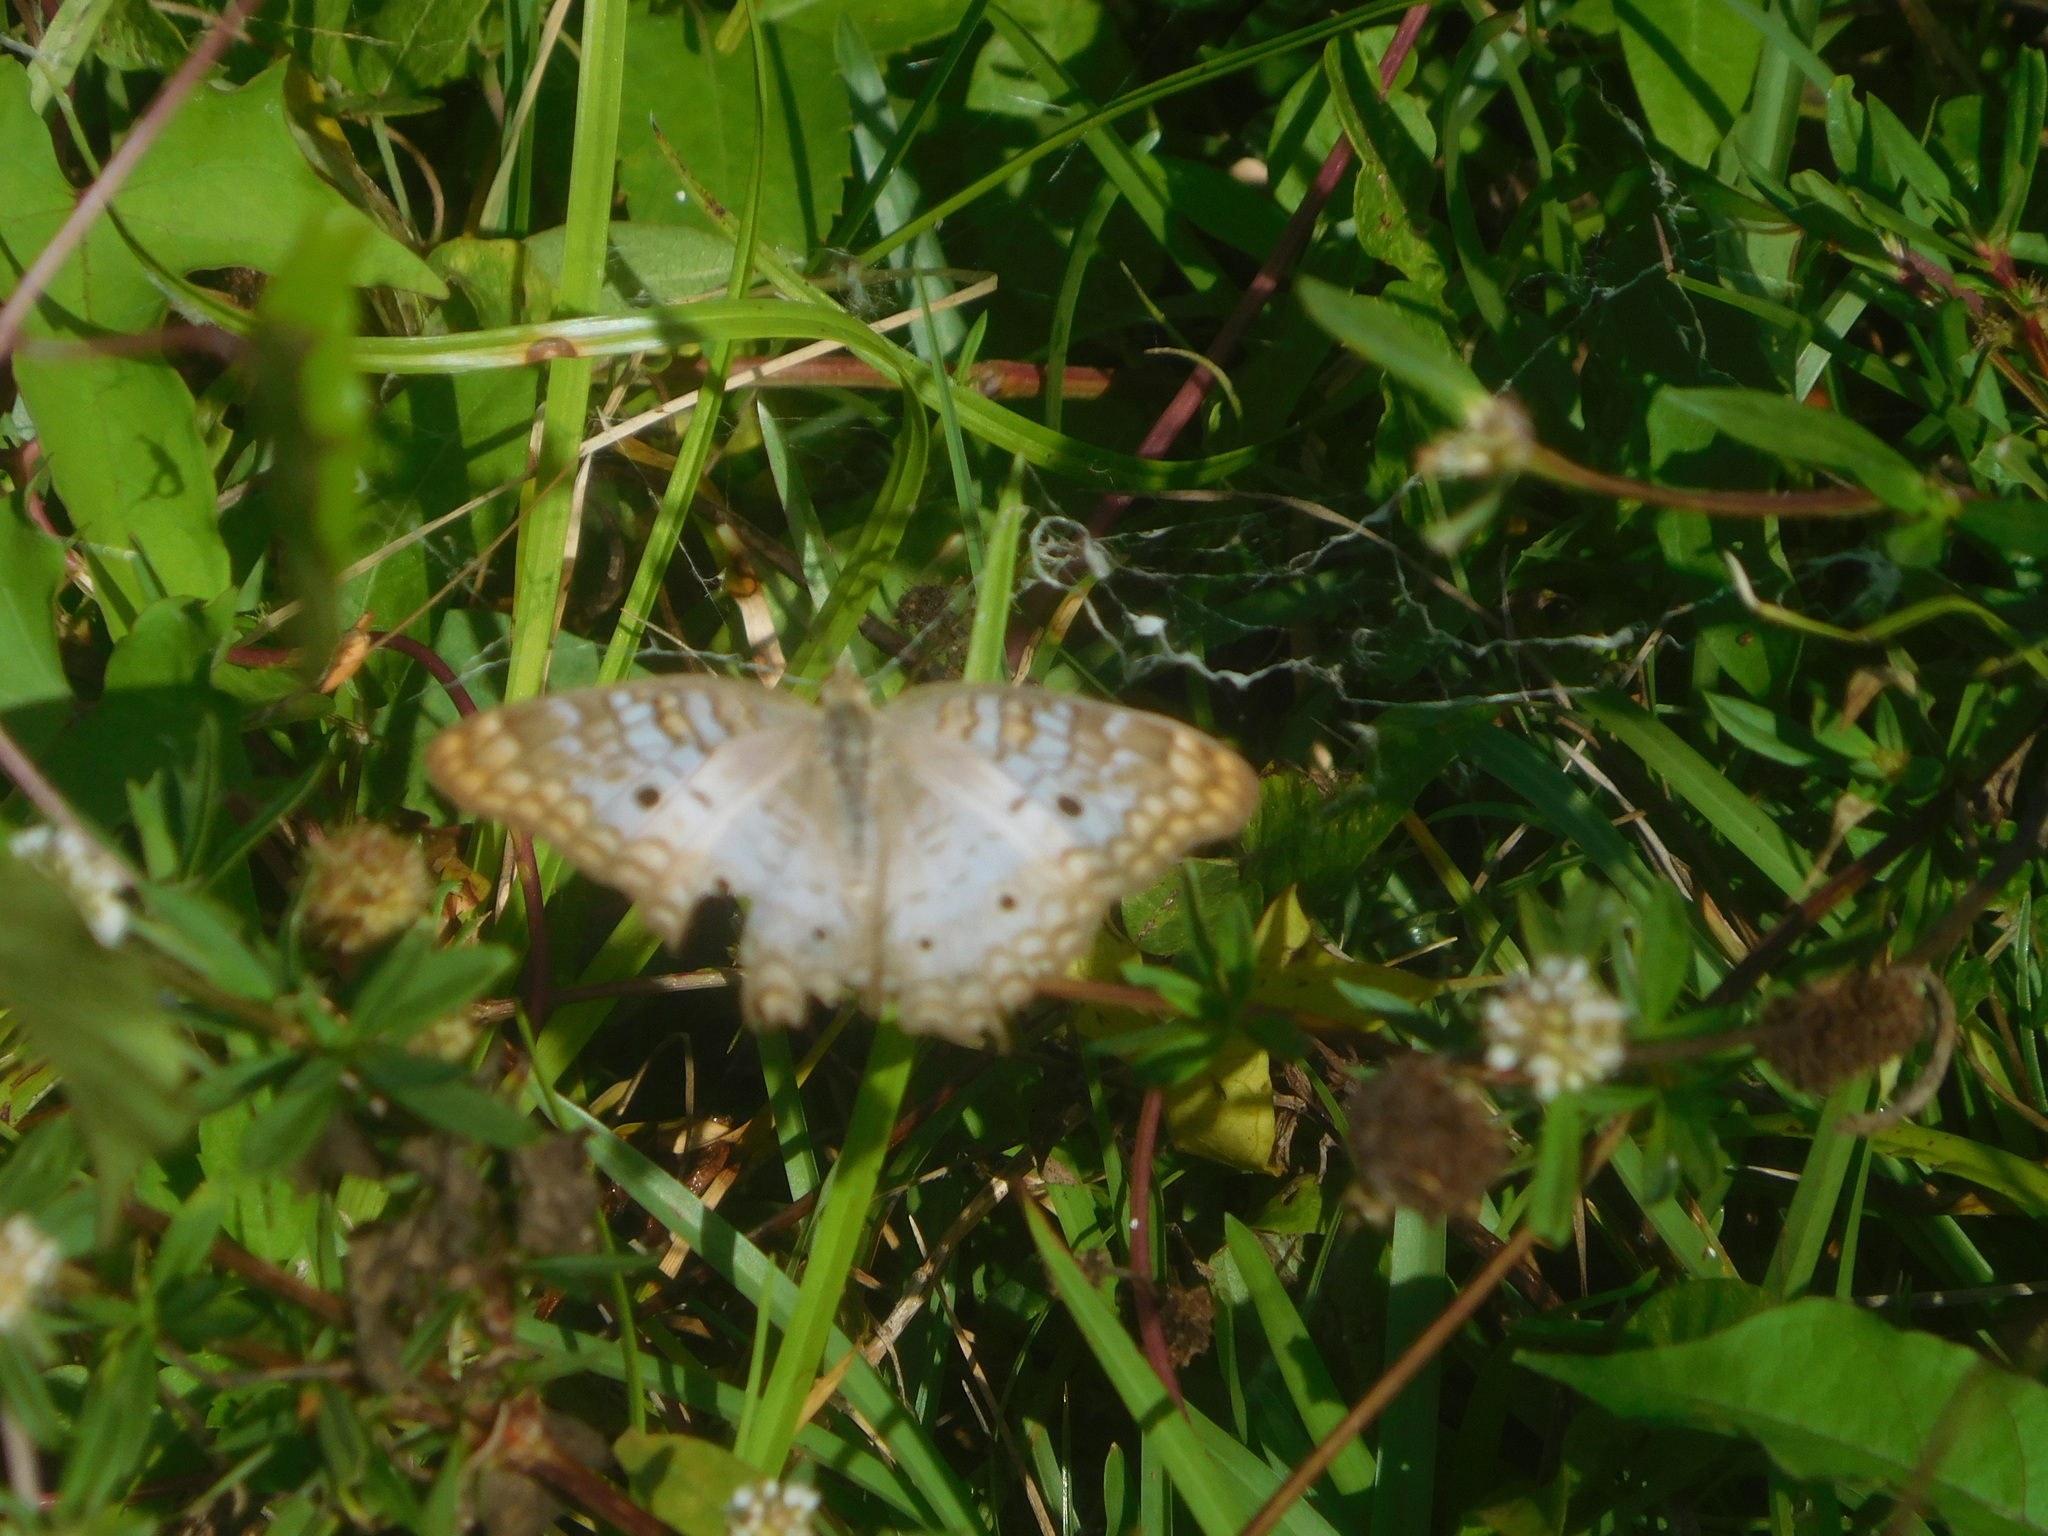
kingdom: Animalia
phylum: Arthropoda
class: Insecta
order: Lepidoptera
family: Nymphalidae
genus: Anartia
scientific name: Anartia jatrophae
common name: White peacock
